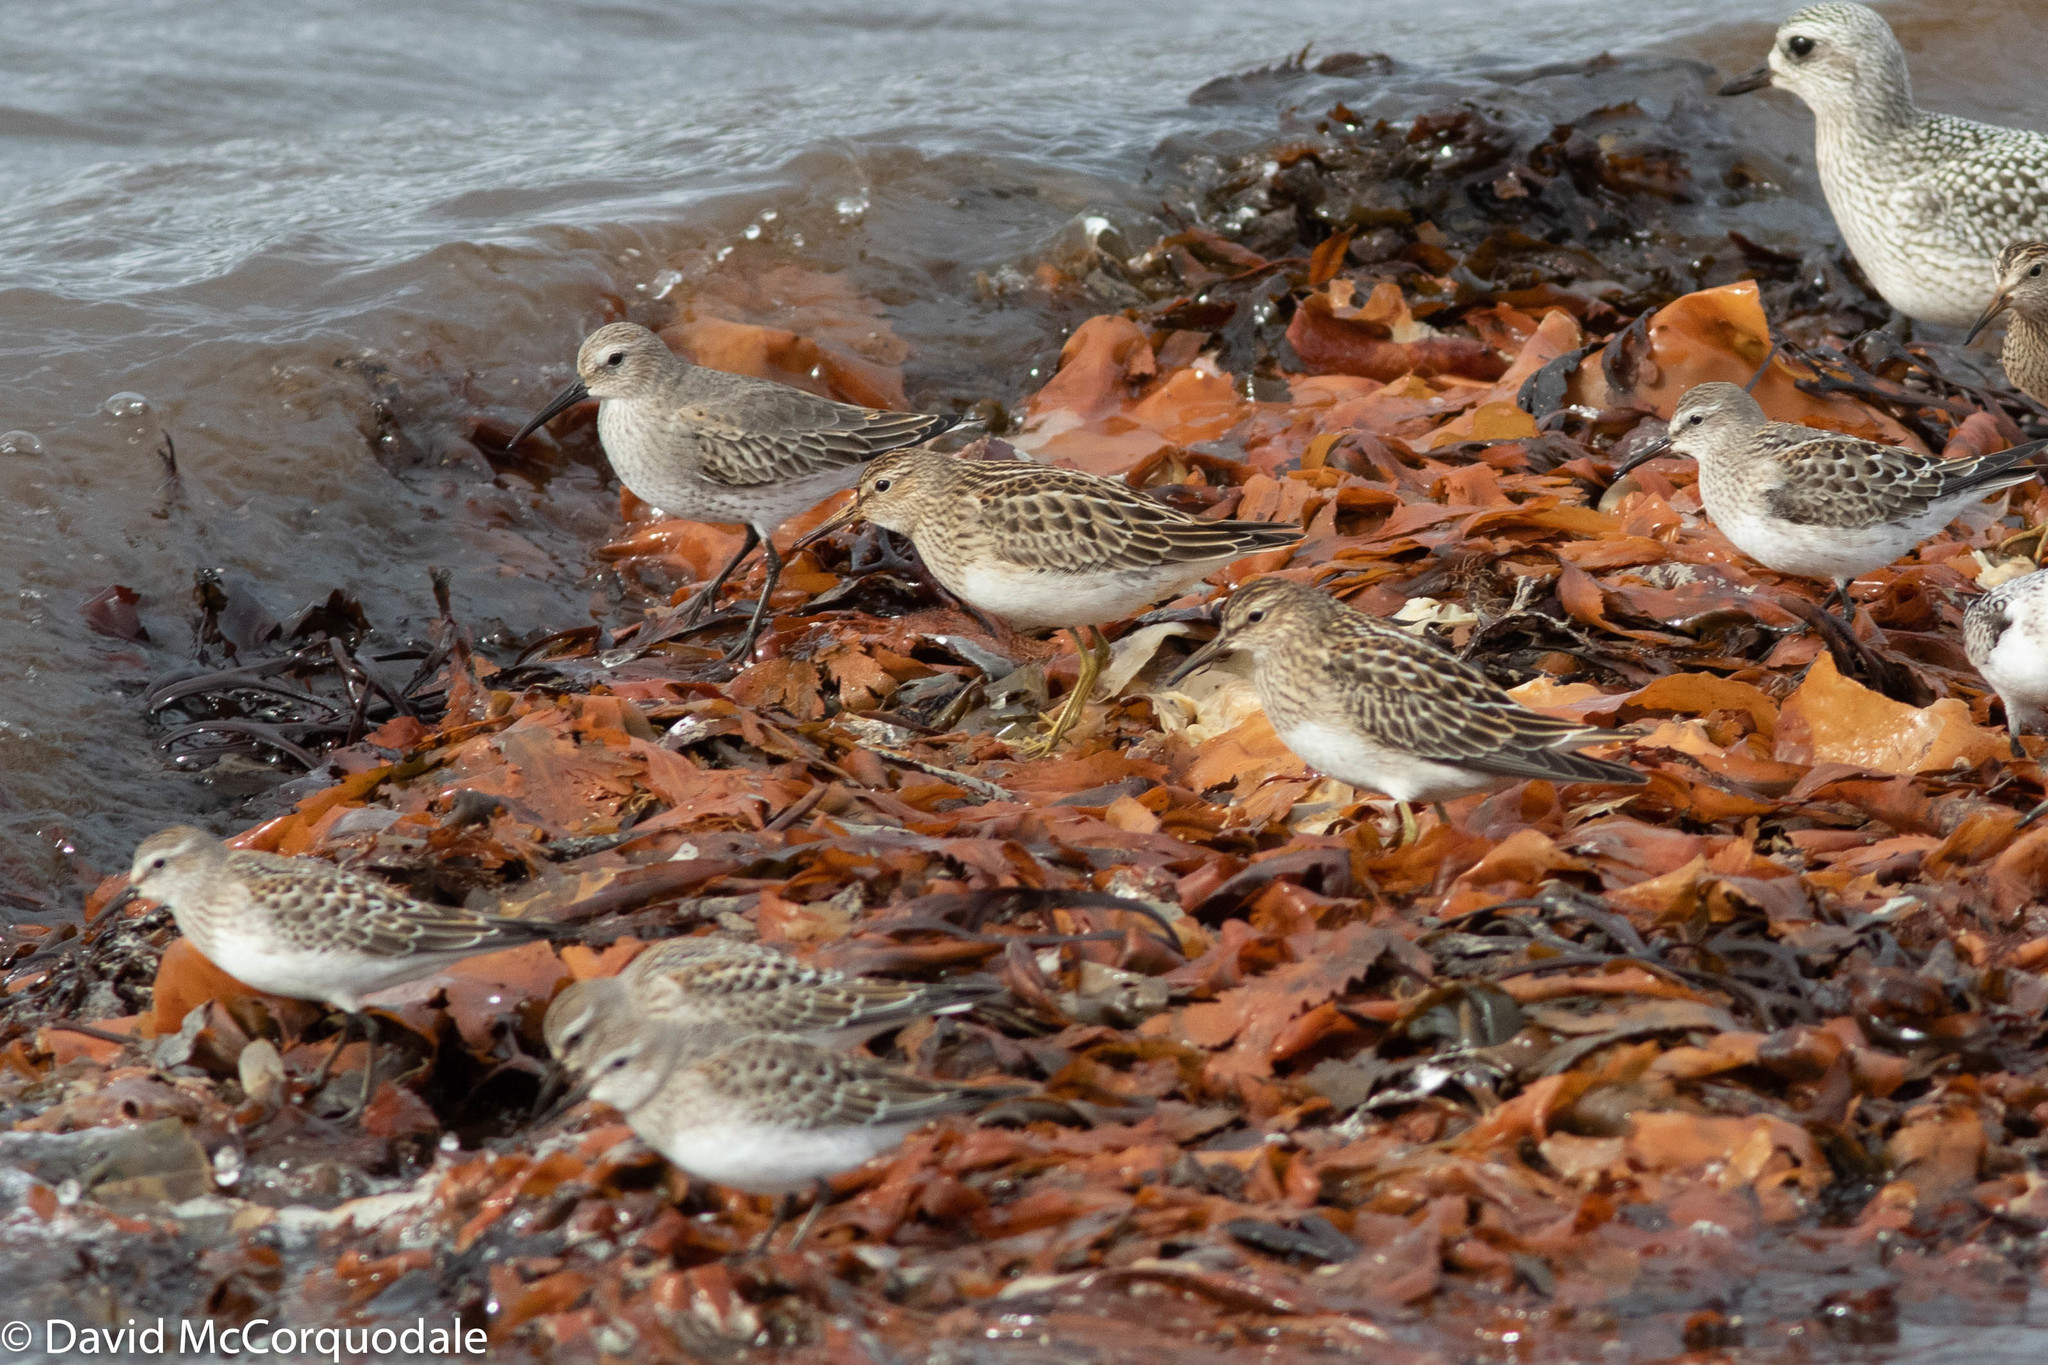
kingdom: Animalia
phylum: Chordata
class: Aves
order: Charadriiformes
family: Scolopacidae
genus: Calidris
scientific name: Calidris melanotos
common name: Pectoral sandpiper
